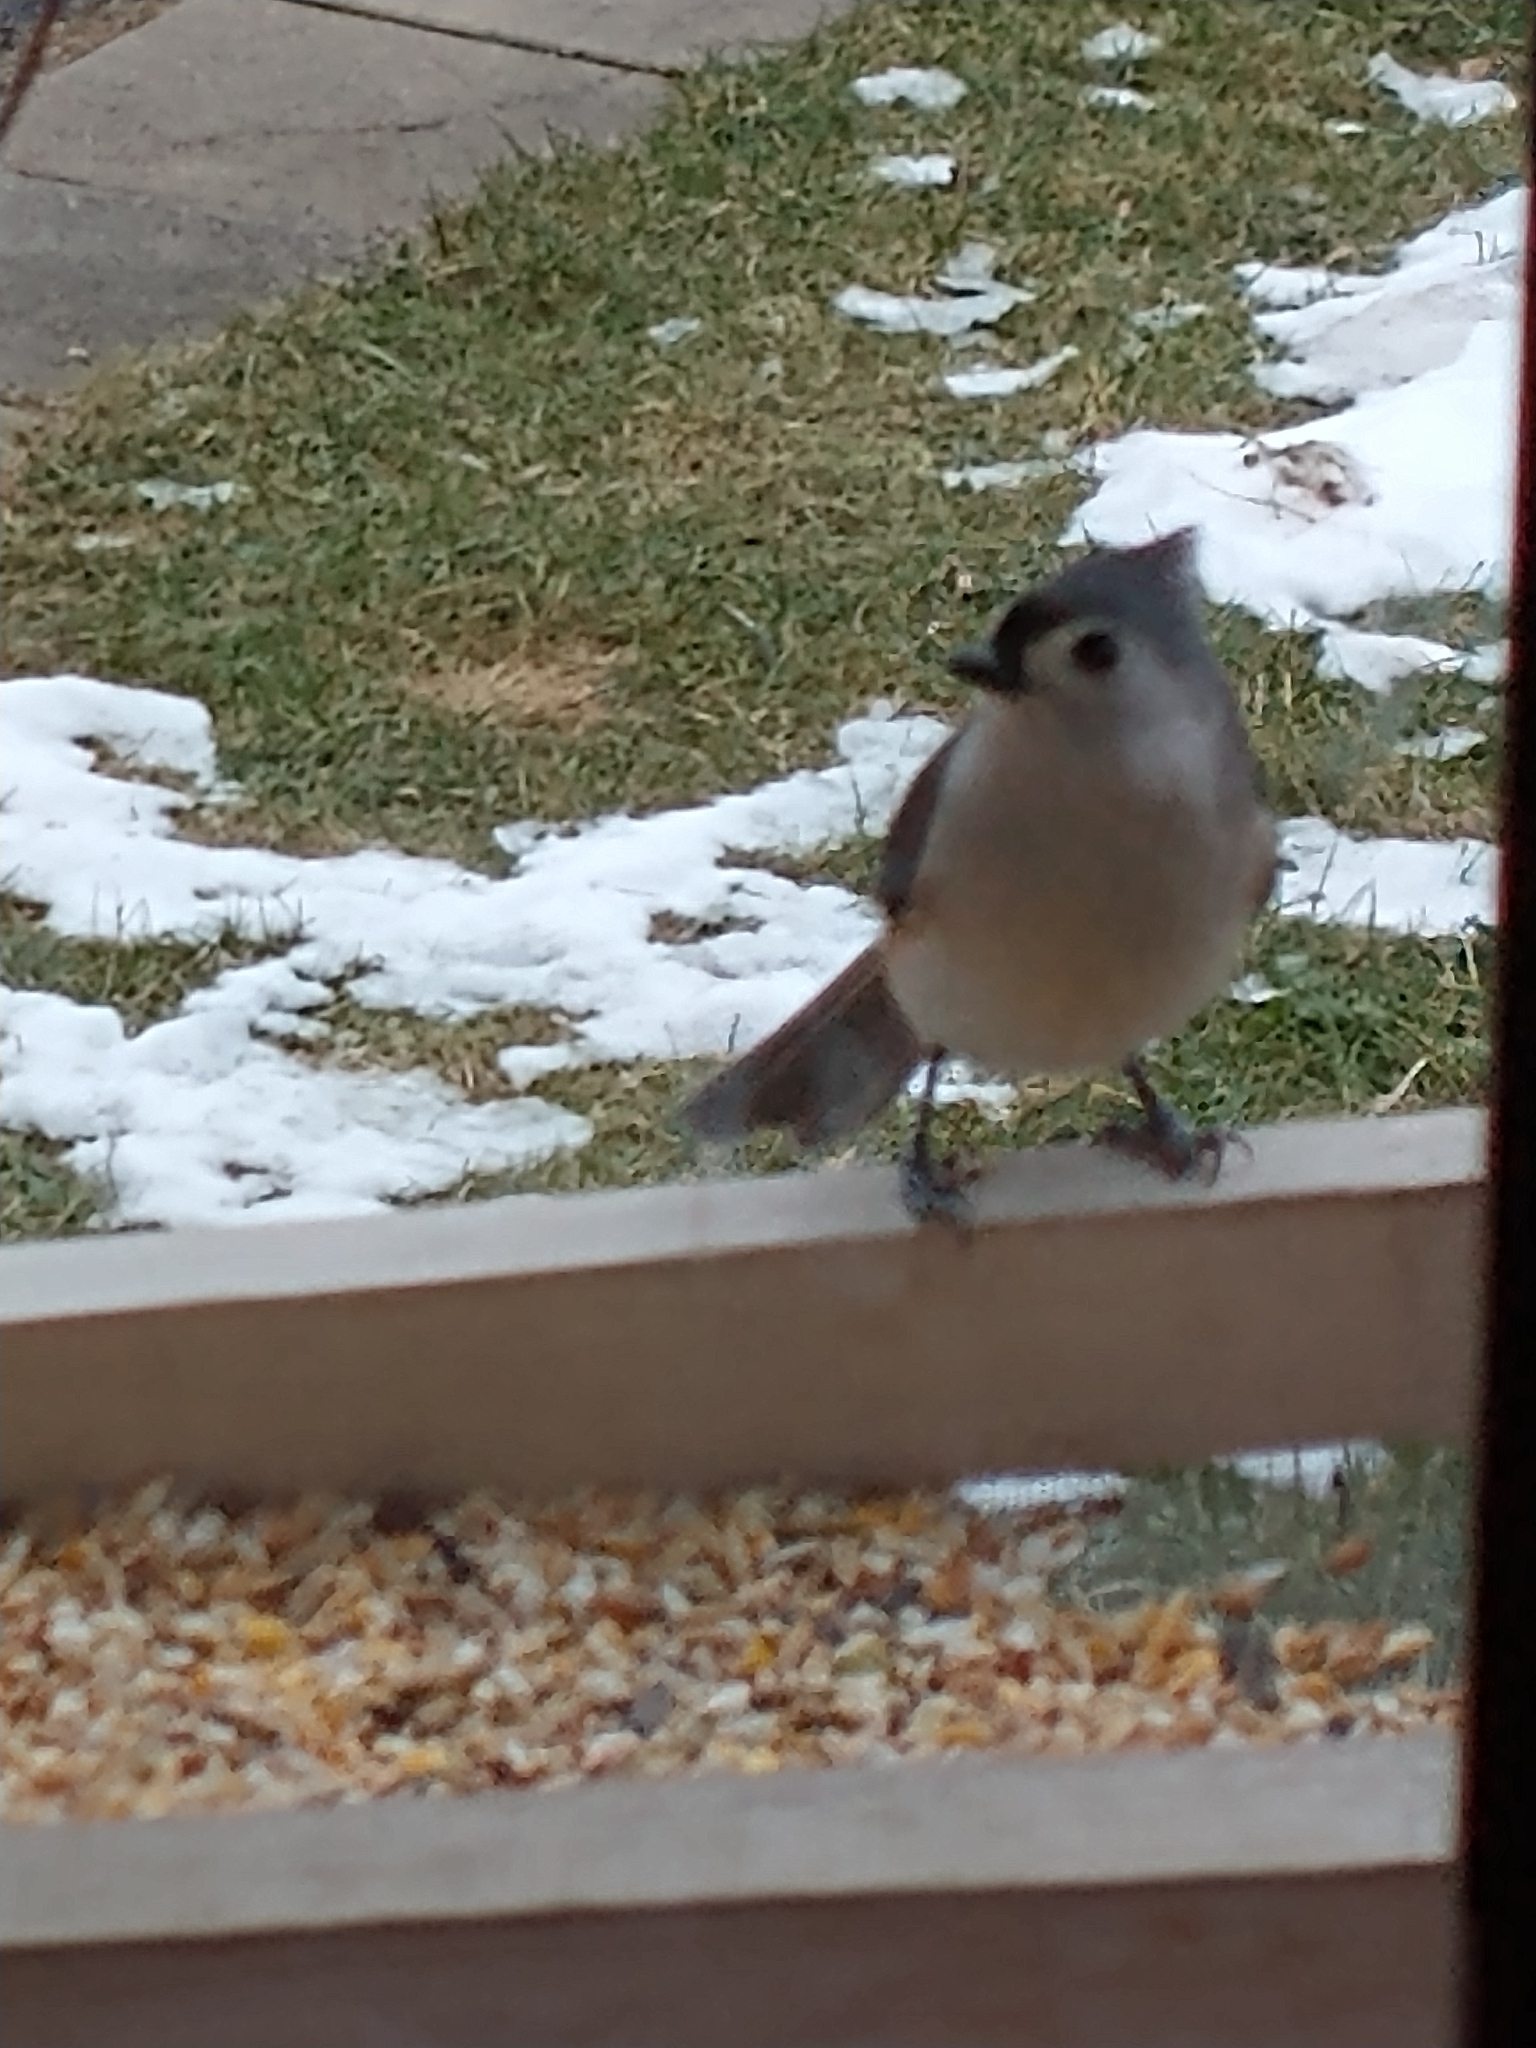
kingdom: Animalia
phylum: Chordata
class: Aves
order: Passeriformes
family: Paridae
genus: Baeolophus
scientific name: Baeolophus bicolor
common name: Tufted titmouse
